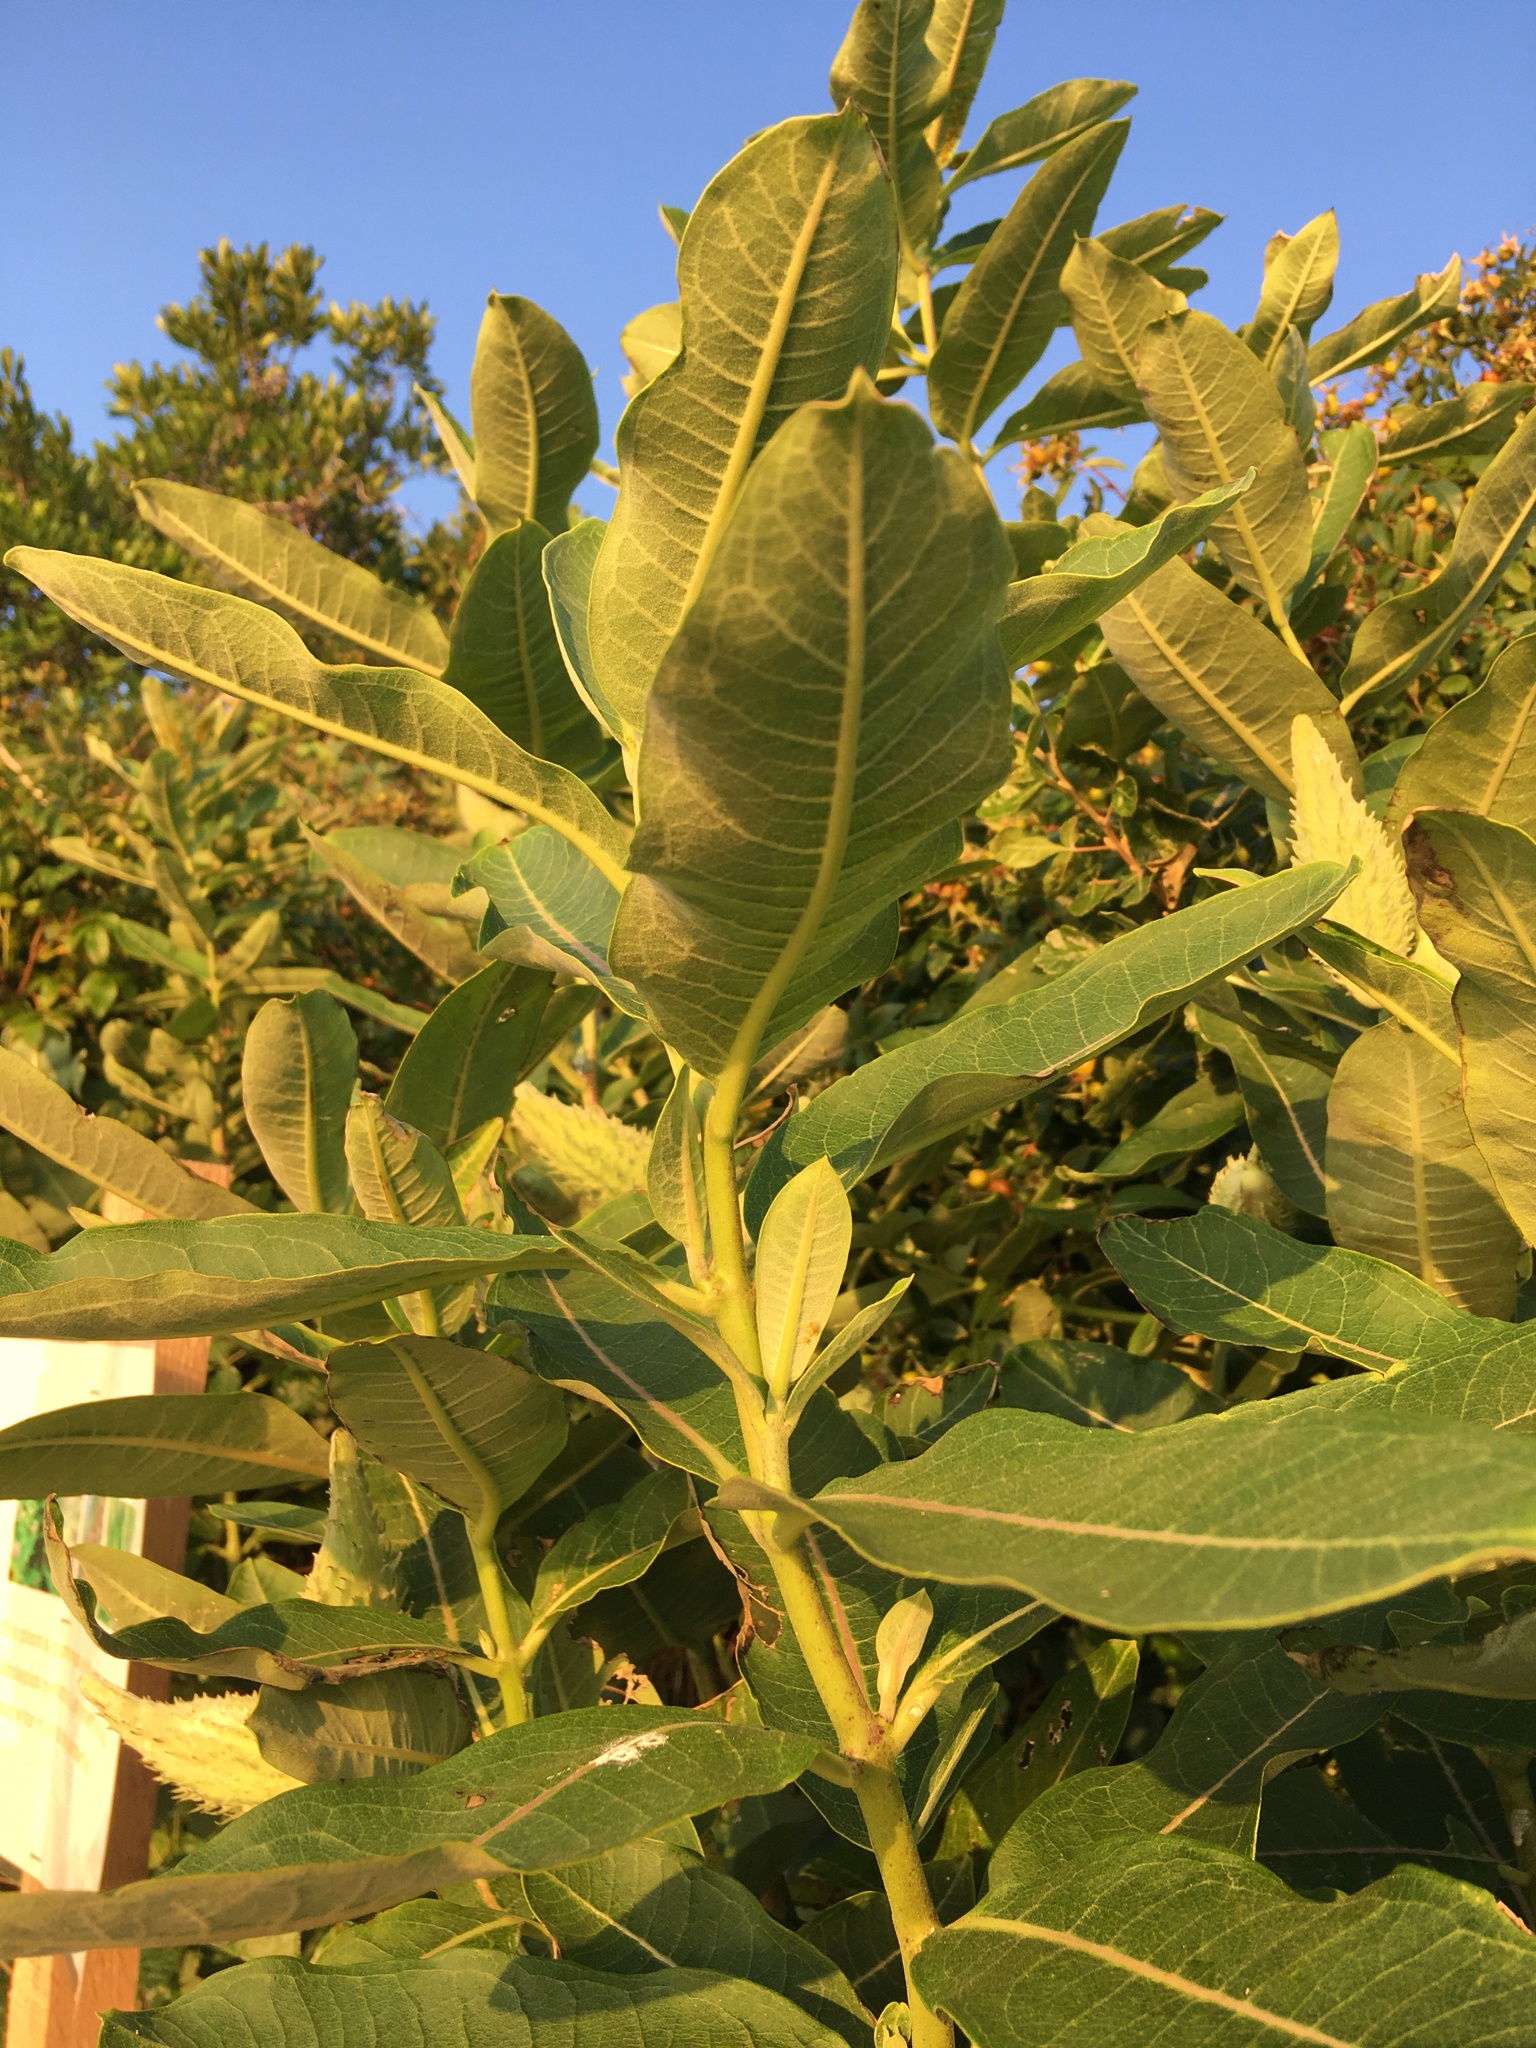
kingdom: Plantae
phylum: Tracheophyta
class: Magnoliopsida
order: Gentianales
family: Apocynaceae
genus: Asclepias
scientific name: Asclepias syriaca
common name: Common milkweed
